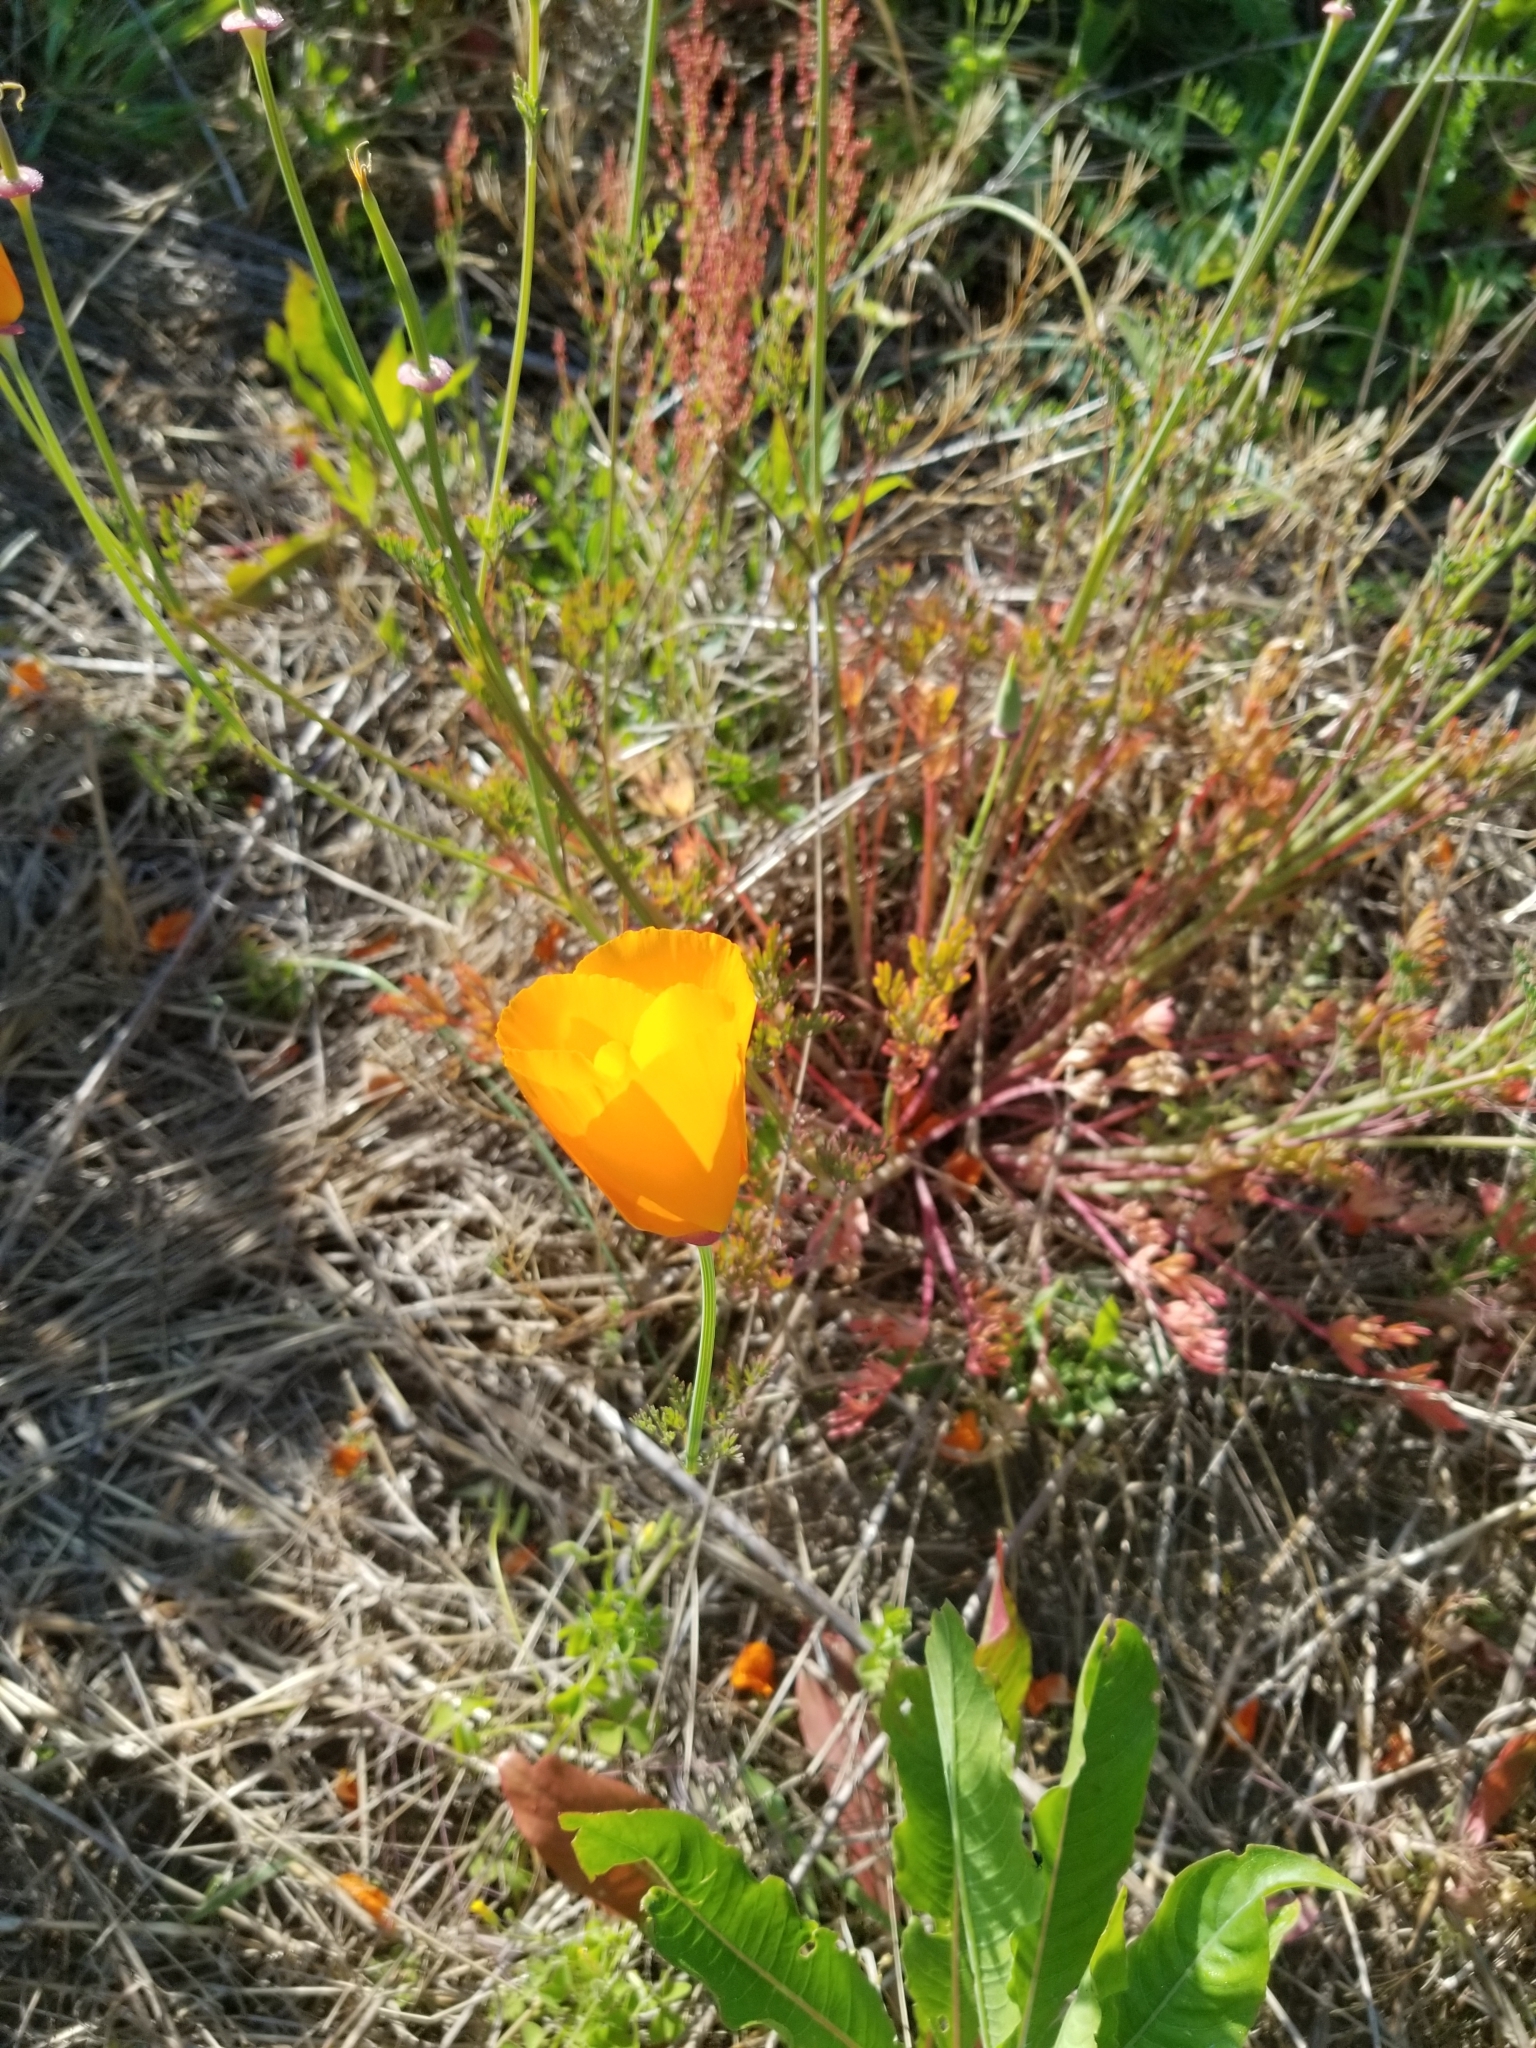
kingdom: Plantae
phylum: Tracheophyta
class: Magnoliopsida
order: Ranunculales
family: Papaveraceae
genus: Eschscholzia
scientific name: Eschscholzia californica
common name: California poppy
